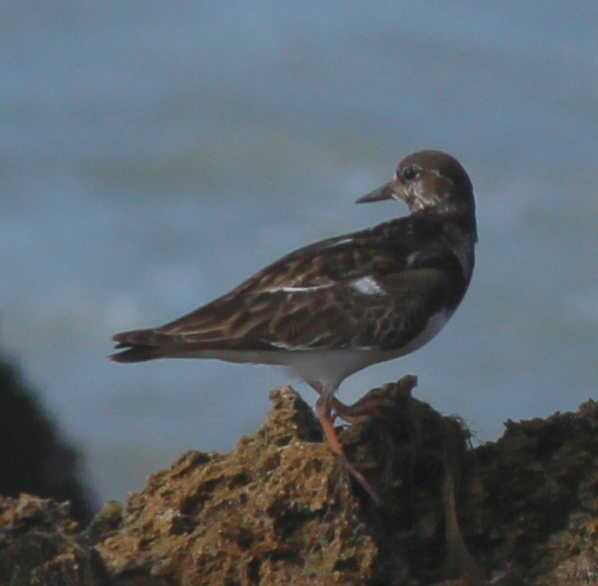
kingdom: Animalia
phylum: Chordata
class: Aves
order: Charadriiformes
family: Scolopacidae
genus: Arenaria
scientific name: Arenaria interpres
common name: Ruddy turnstone
